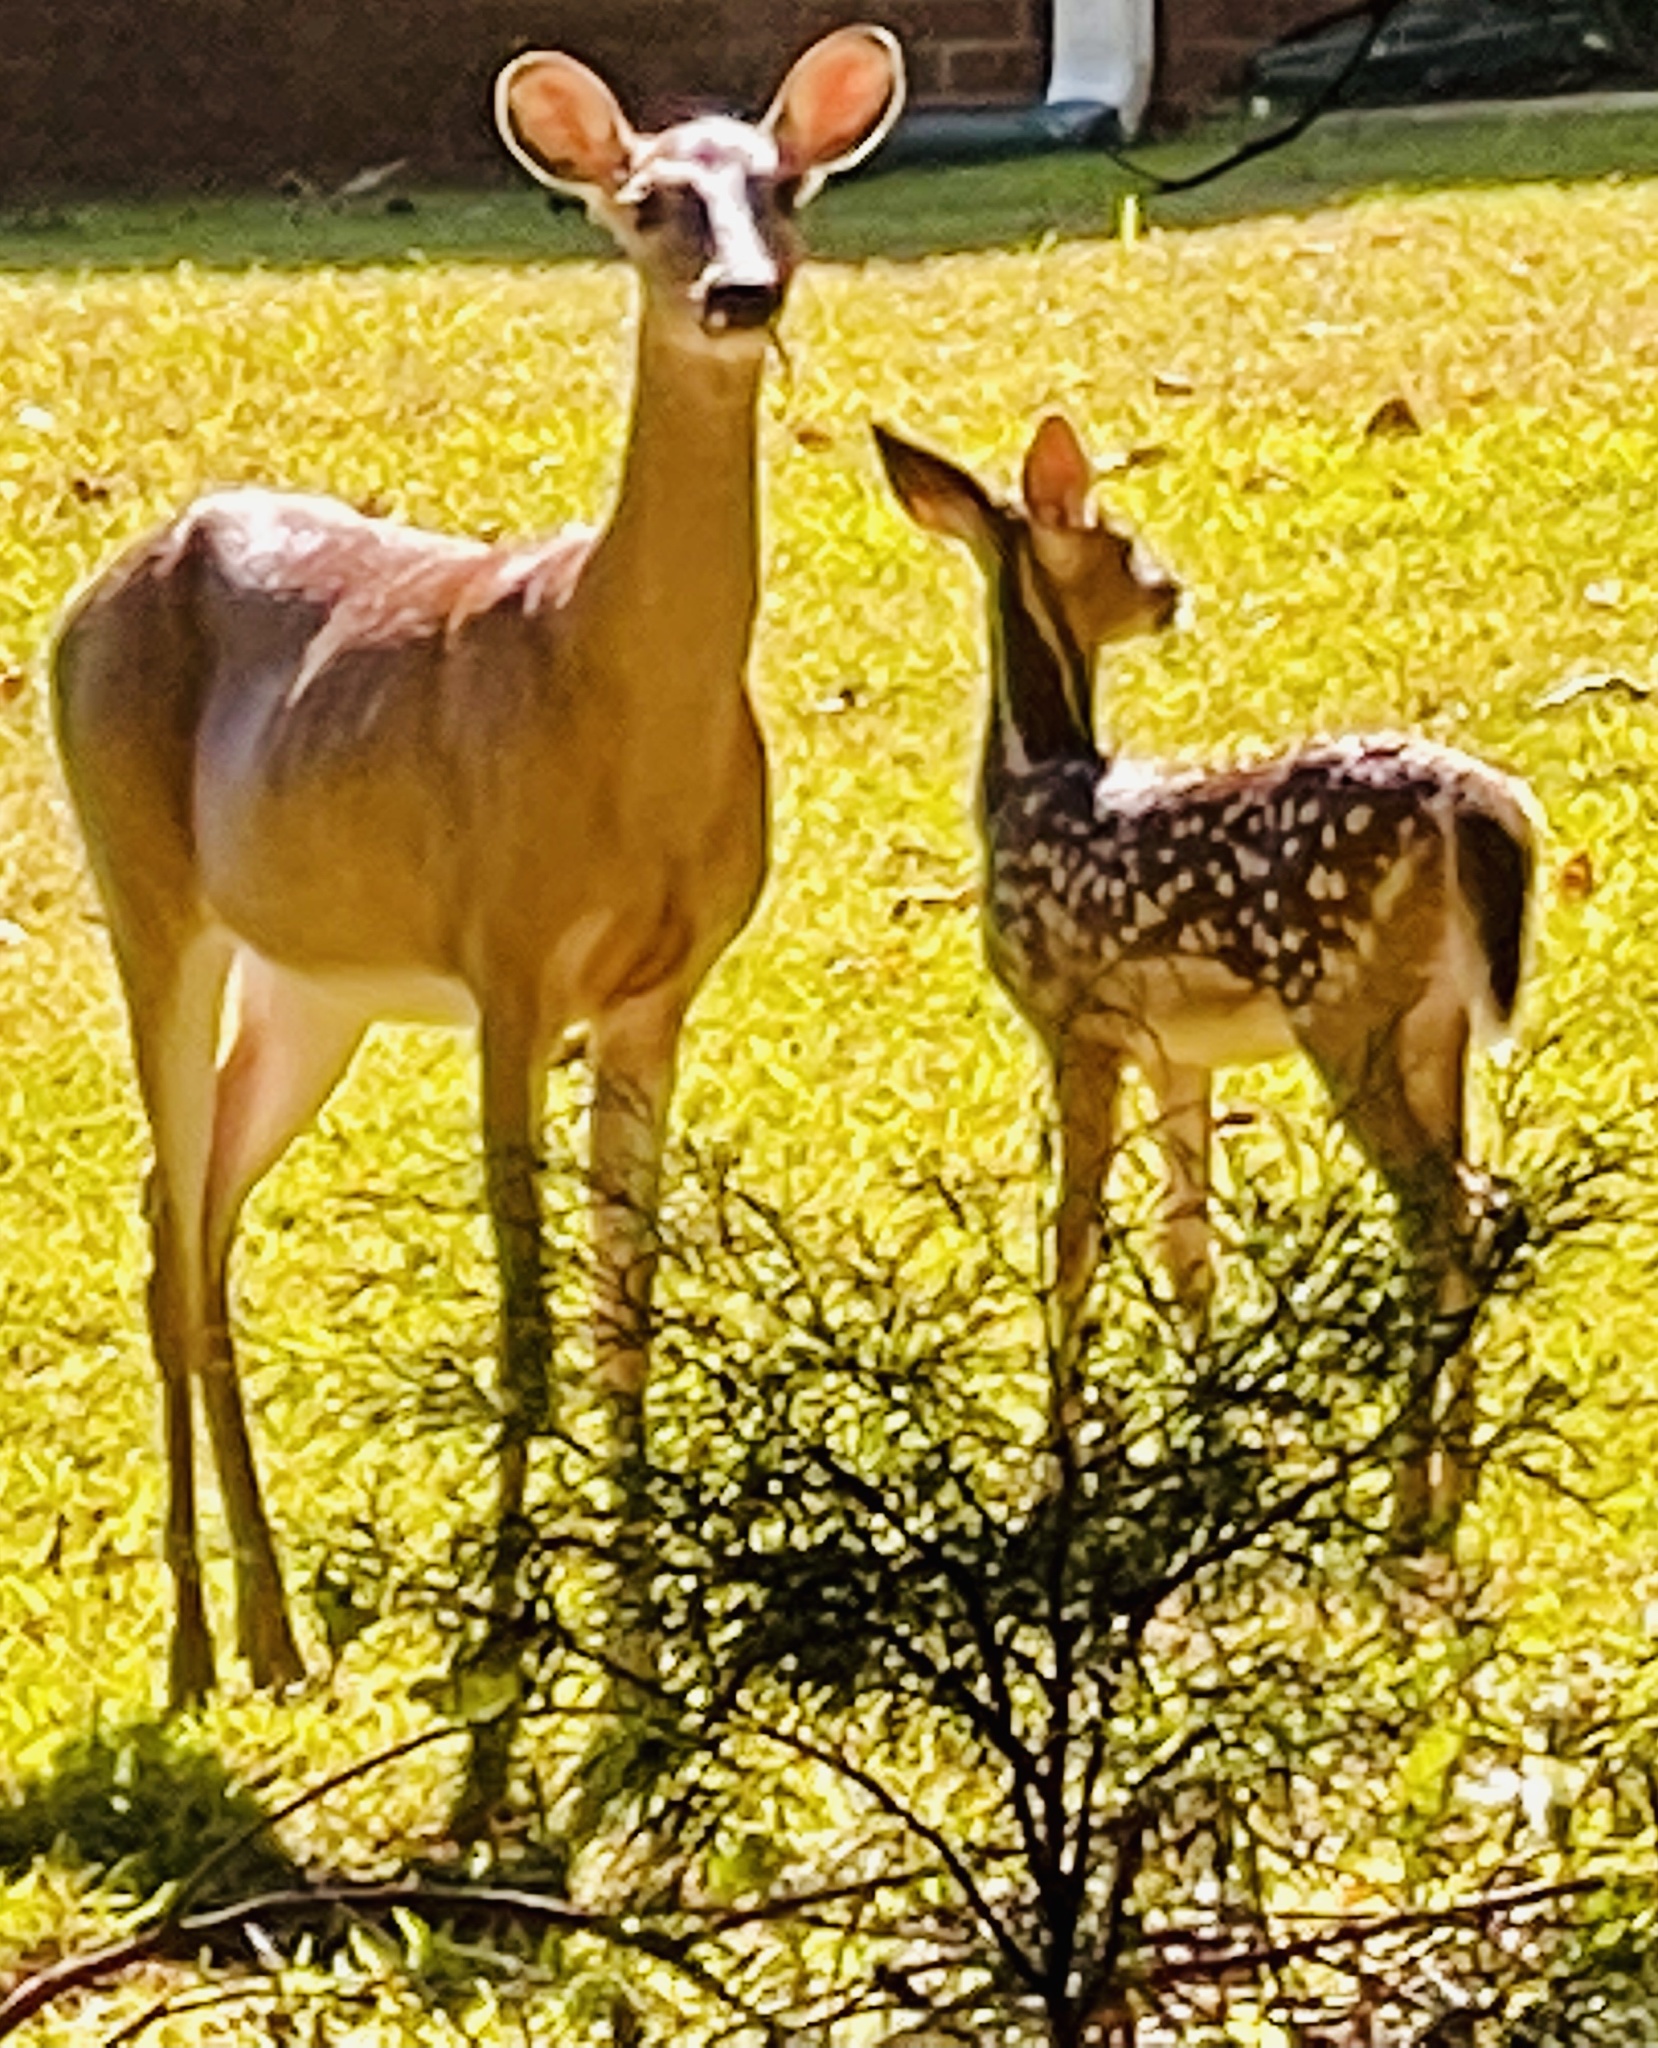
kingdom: Animalia
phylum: Chordata
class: Mammalia
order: Artiodactyla
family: Cervidae
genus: Odocoileus
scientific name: Odocoileus virginianus
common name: White-tailed deer
